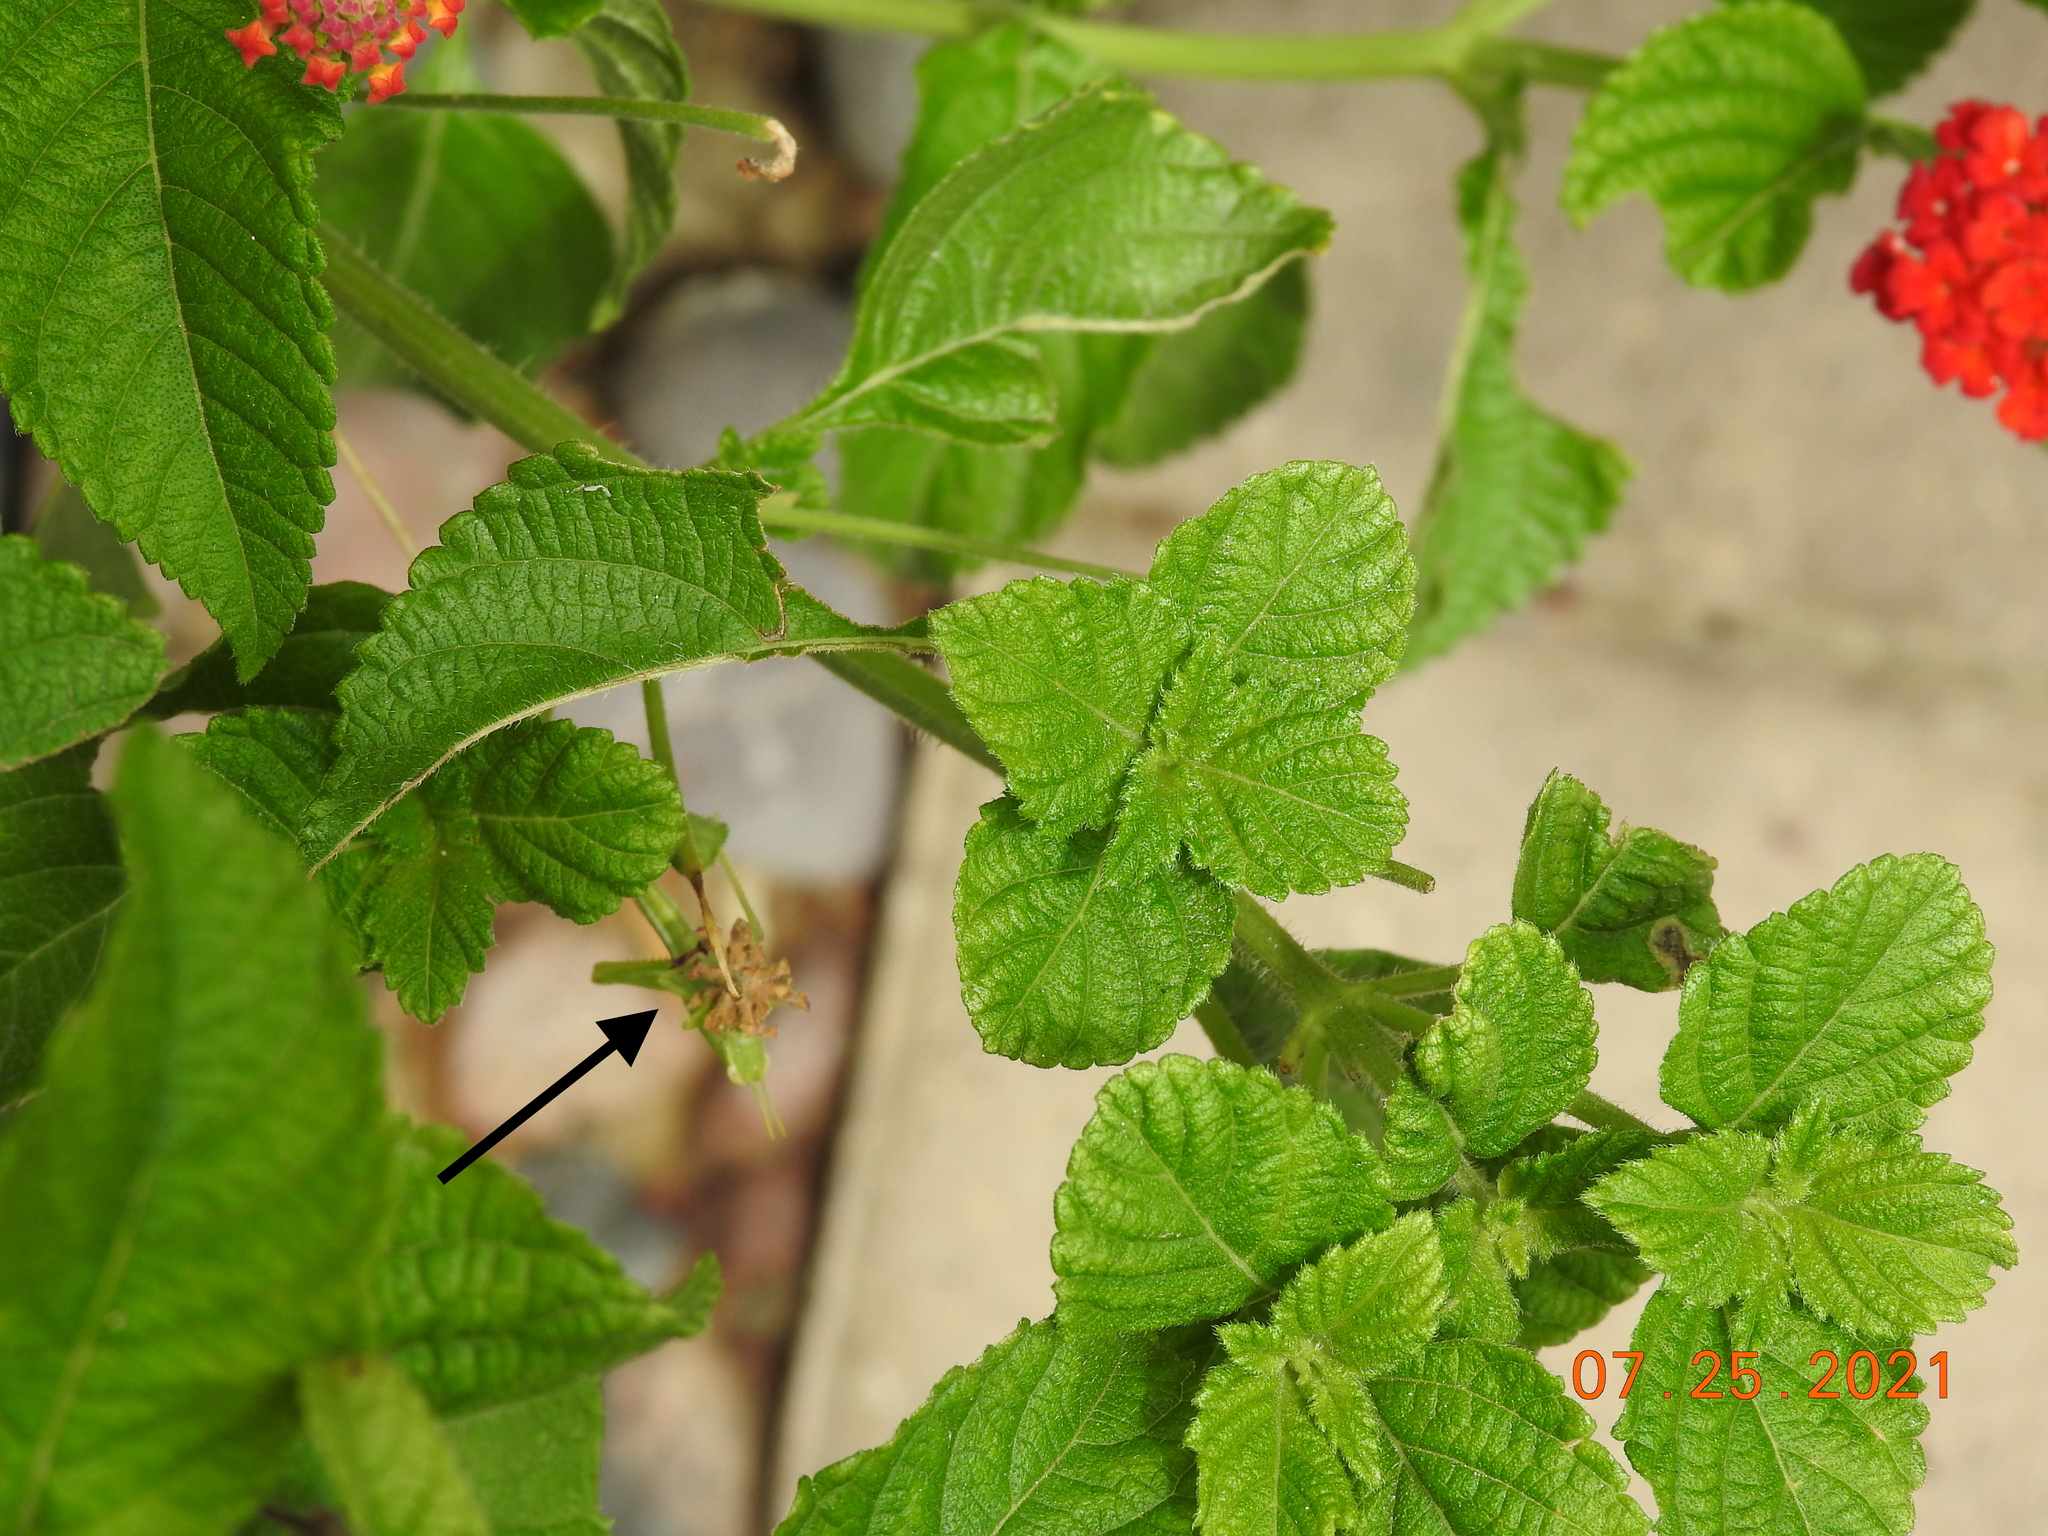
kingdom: Animalia
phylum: Arthropoda
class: Insecta
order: Orthoptera
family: Acrididae
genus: Schistocerca
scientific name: Schistocerca nitens
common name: Vagrant grasshopper
